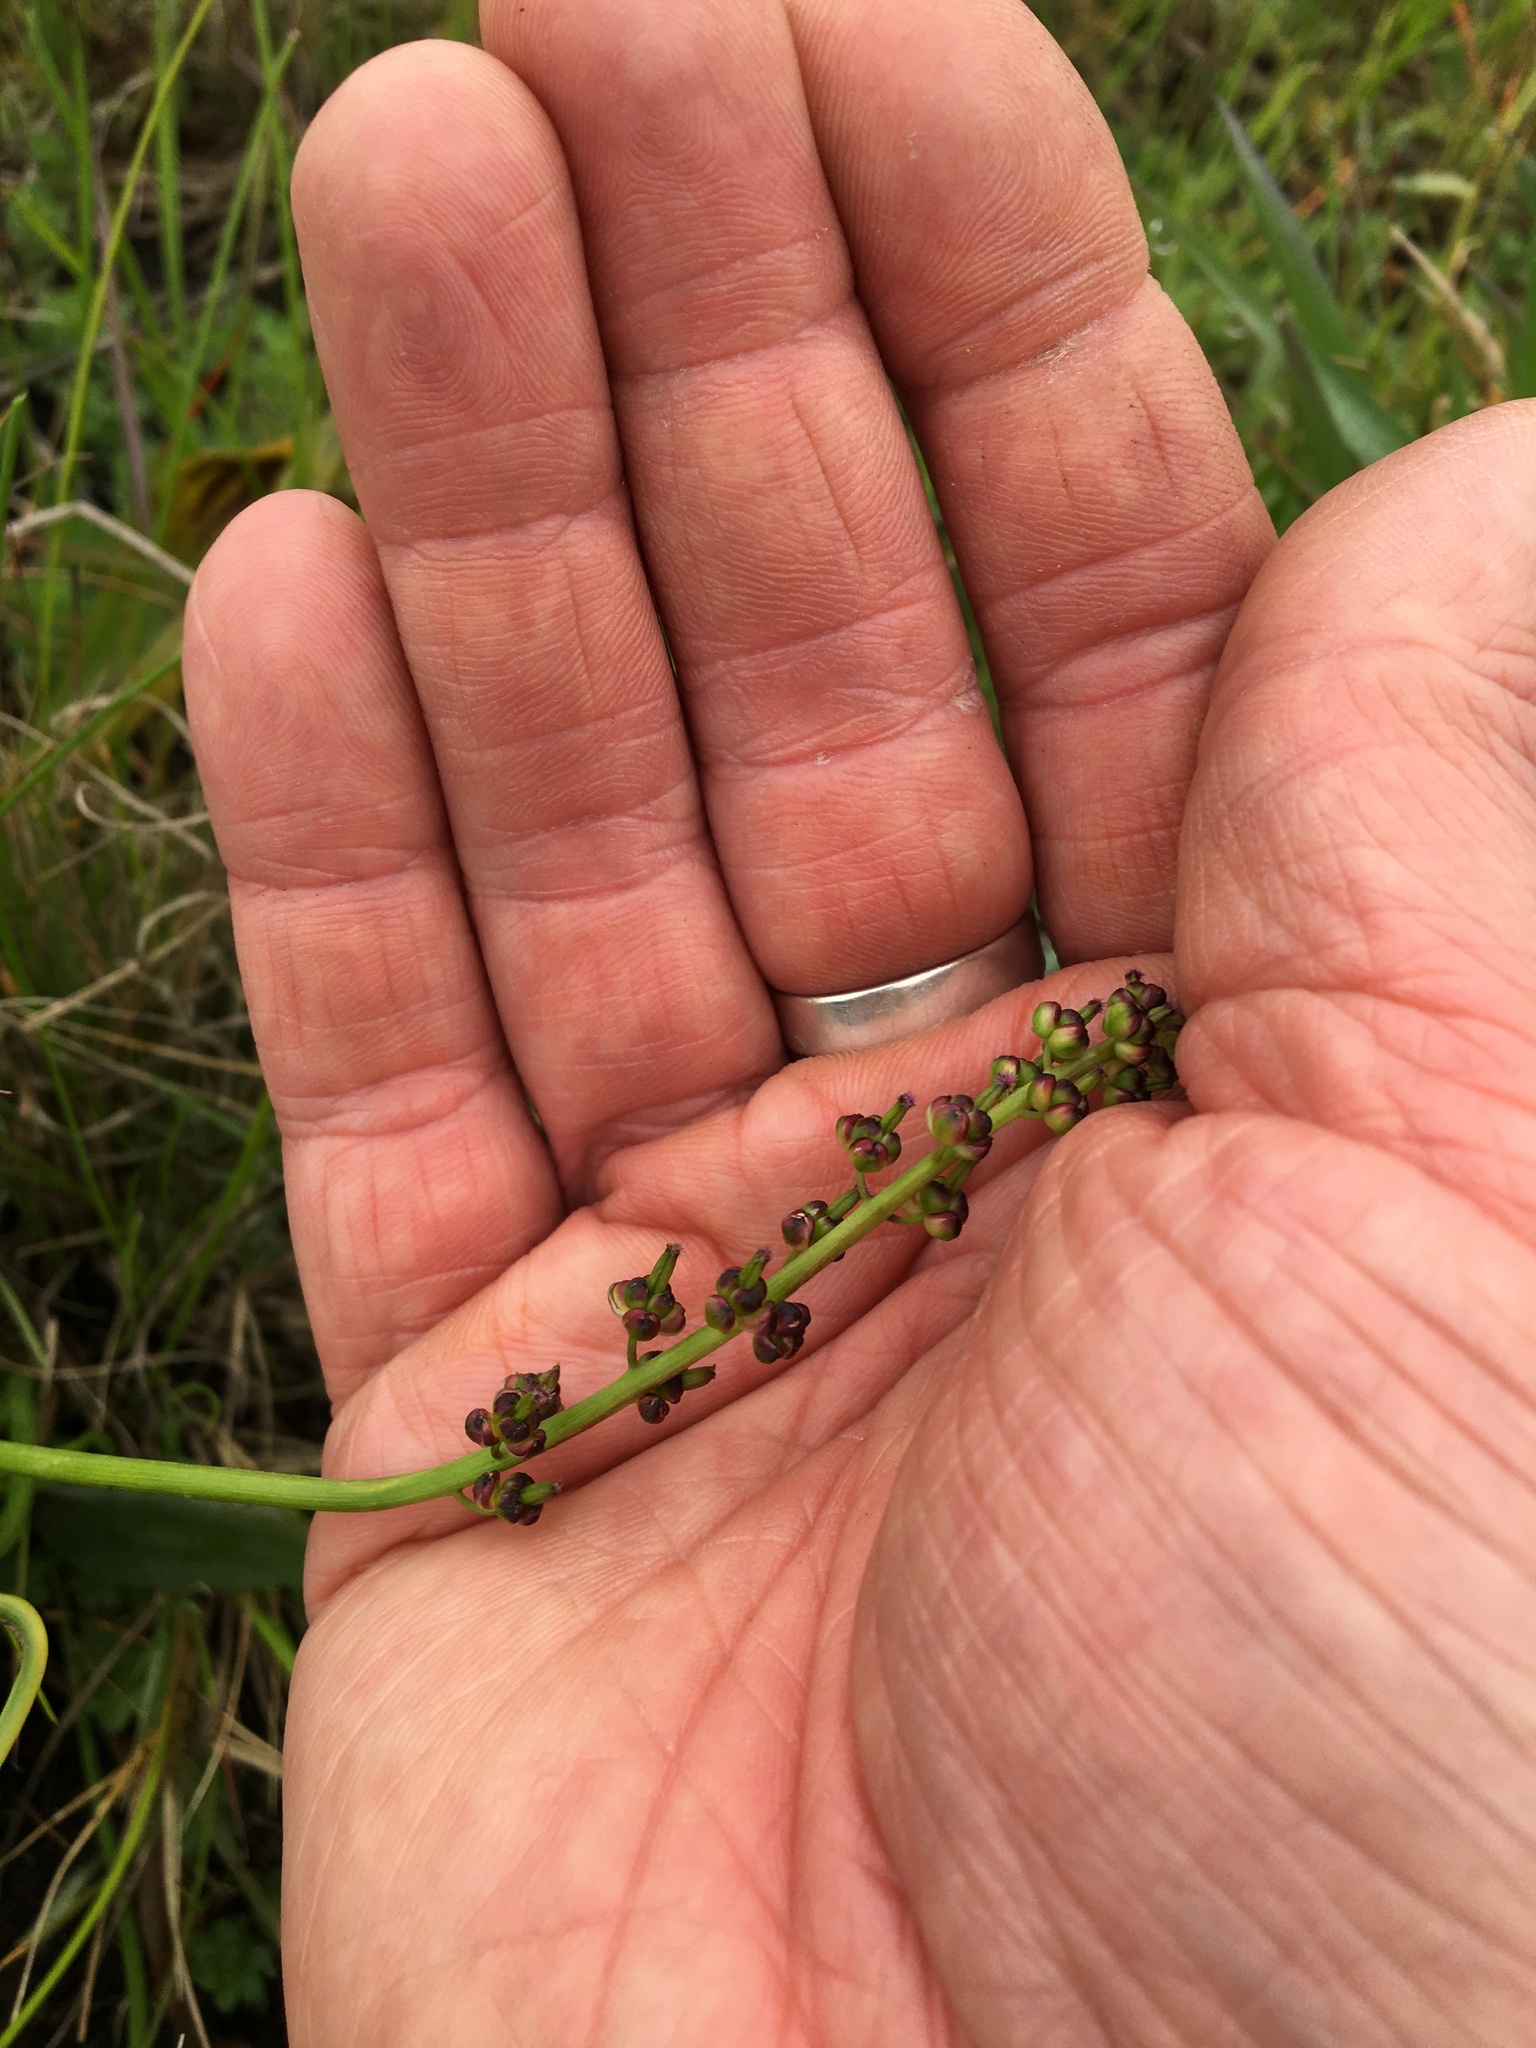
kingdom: Plantae
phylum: Tracheophyta
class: Liliopsida
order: Alismatales
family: Juncaginaceae
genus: Triglochin
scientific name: Triglochin bulbosa
